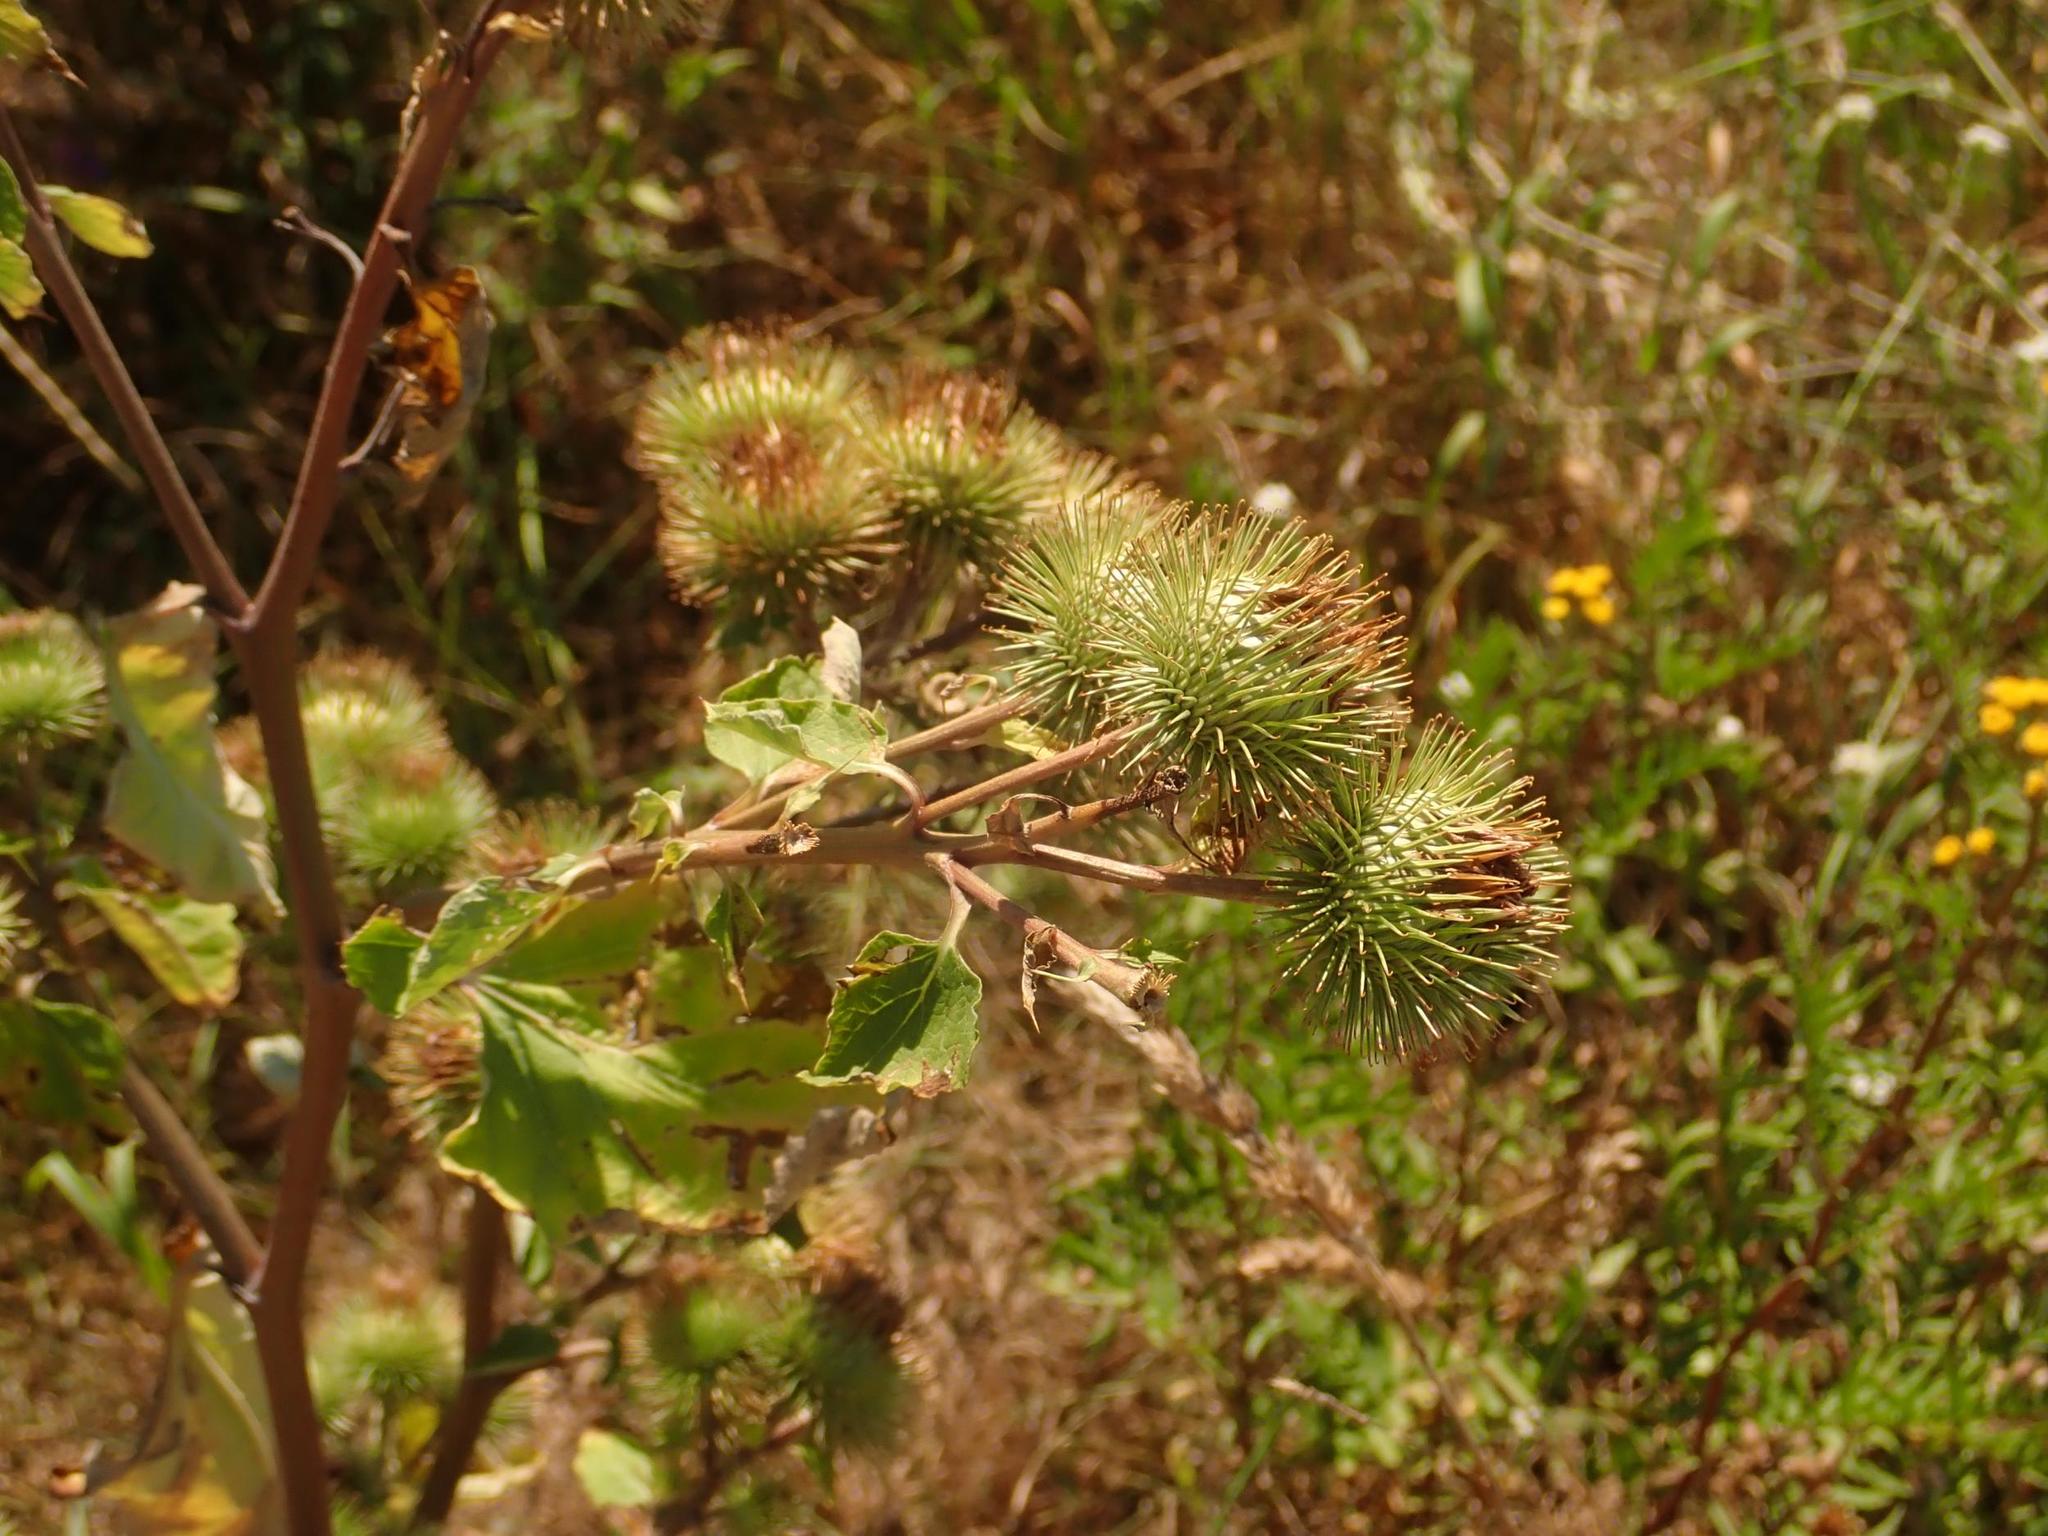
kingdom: Plantae
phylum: Tracheophyta
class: Magnoliopsida
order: Asterales
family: Asteraceae
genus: Arctium
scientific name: Arctium lappa
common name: Greater burdock
